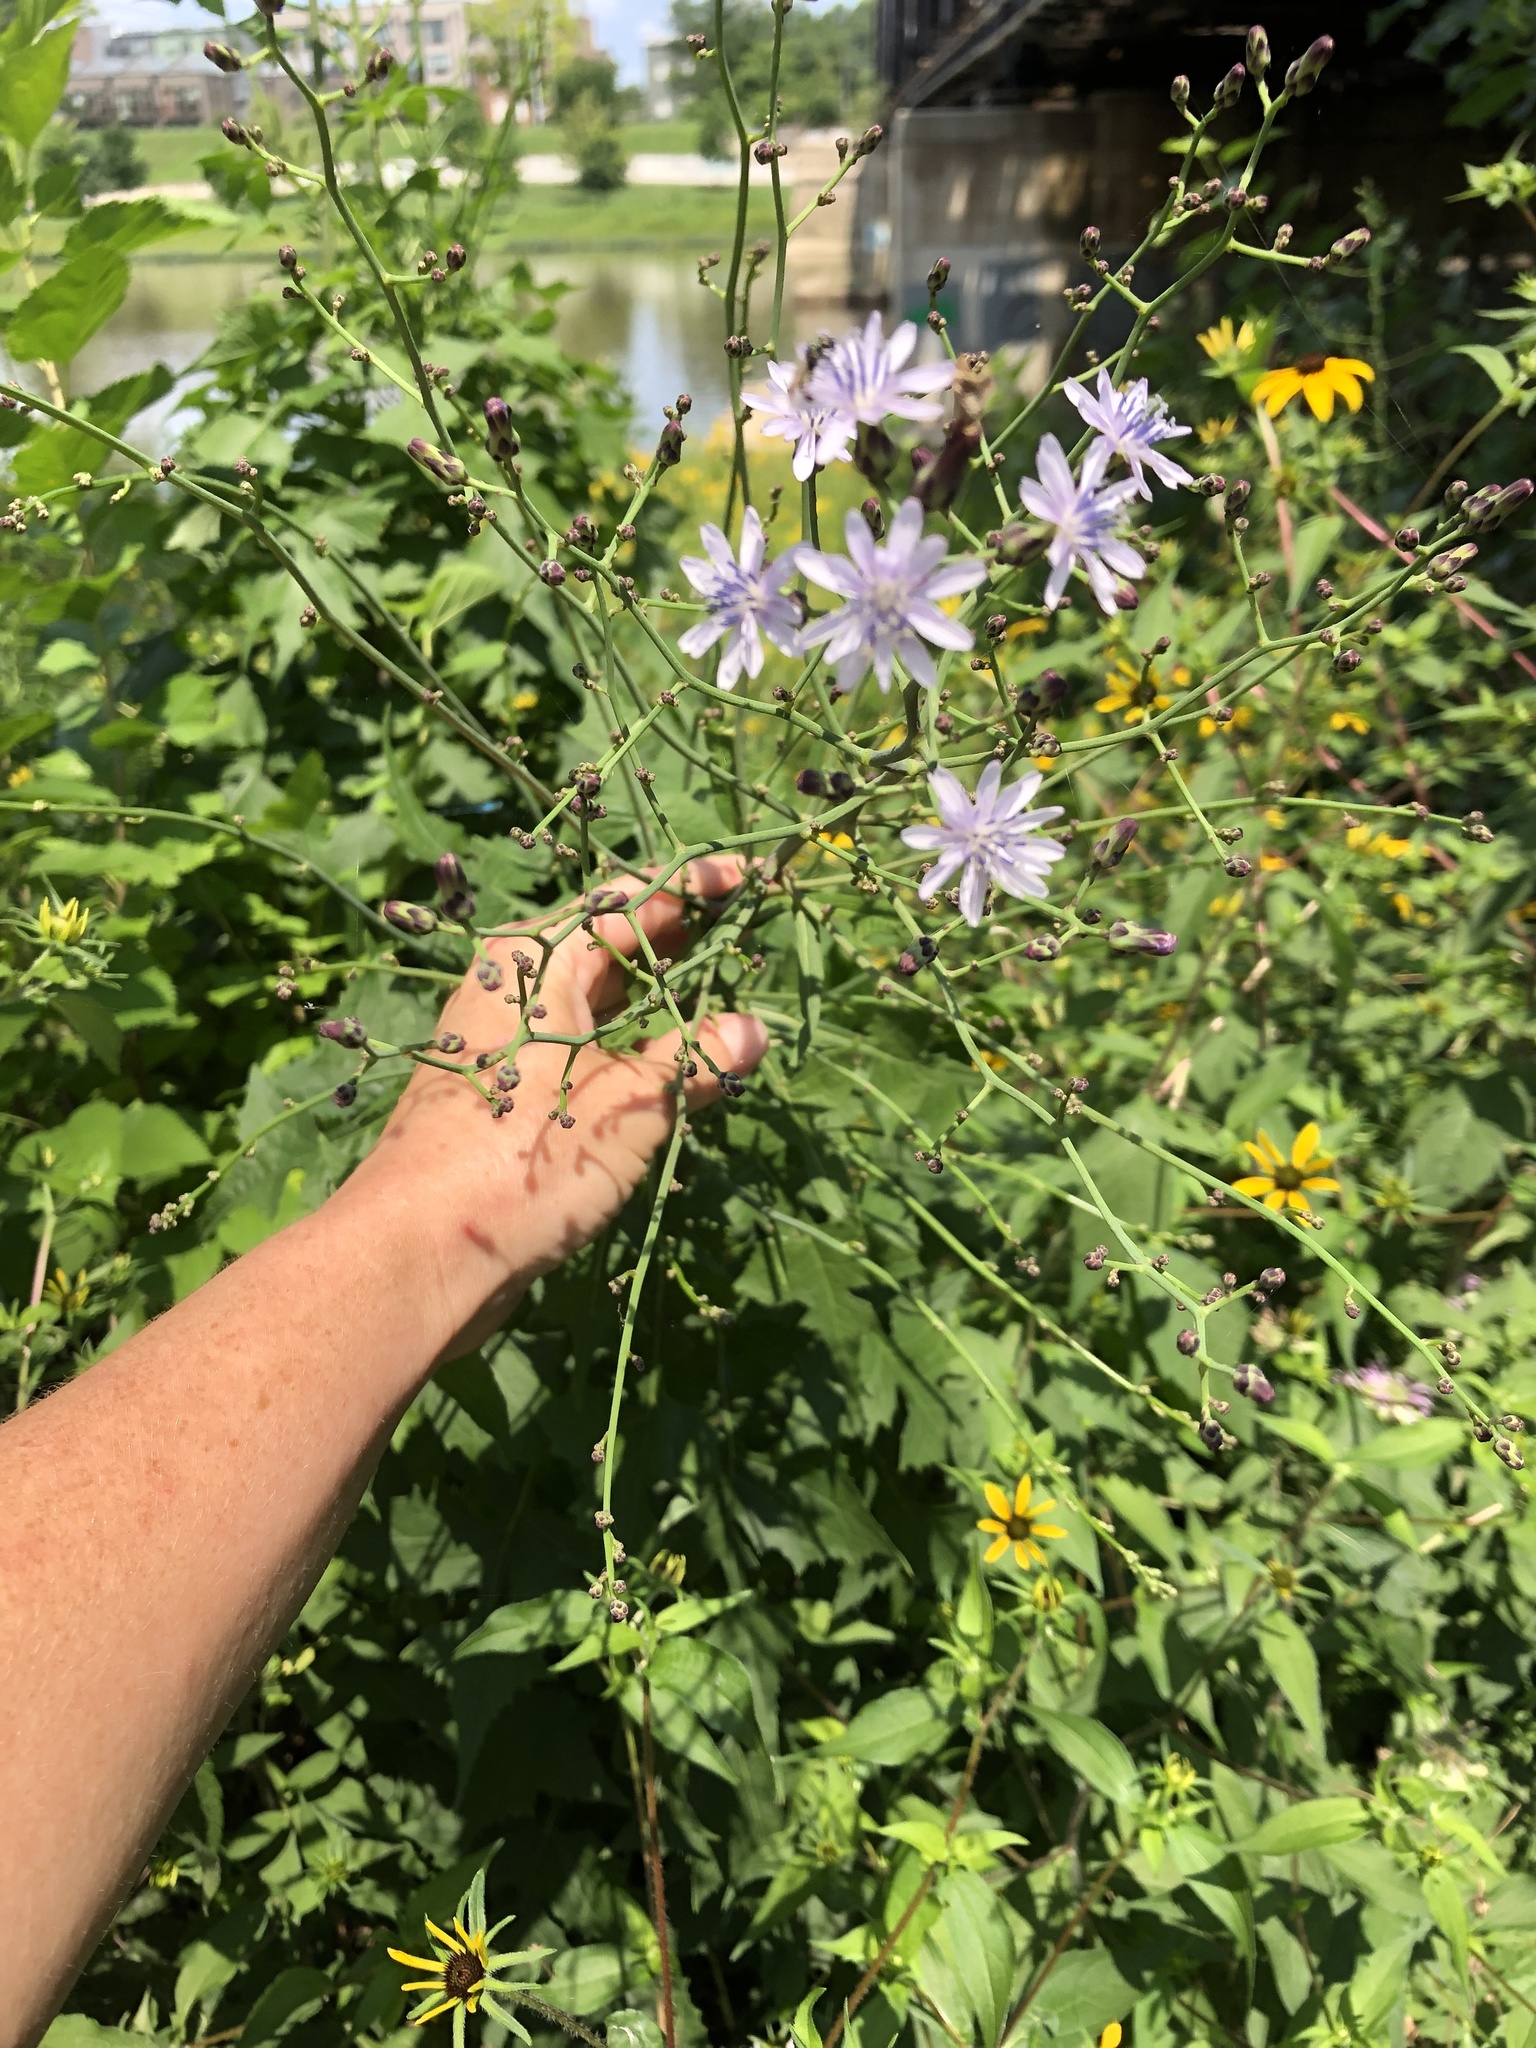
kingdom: Plantae
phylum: Tracheophyta
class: Magnoliopsida
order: Asterales
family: Asteraceae
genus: Lactuca
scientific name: Lactuca floridana
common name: Woodland lettuce
